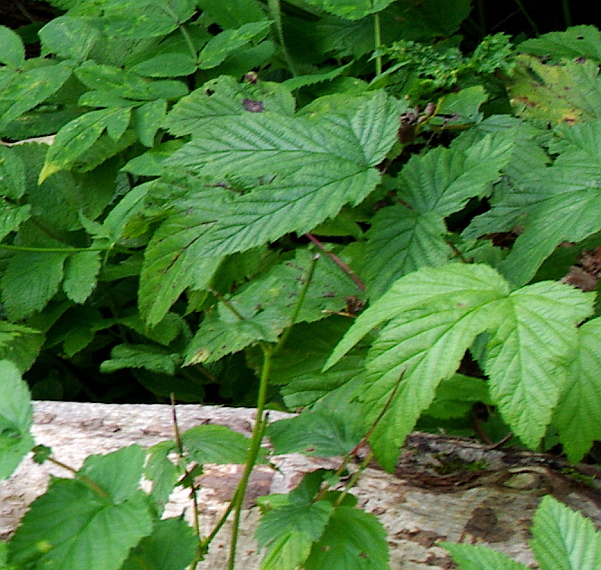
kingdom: Plantae
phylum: Tracheophyta
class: Magnoliopsida
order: Rosales
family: Rosaceae
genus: Filipendula
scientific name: Filipendula ulmaria
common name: Meadowsweet
